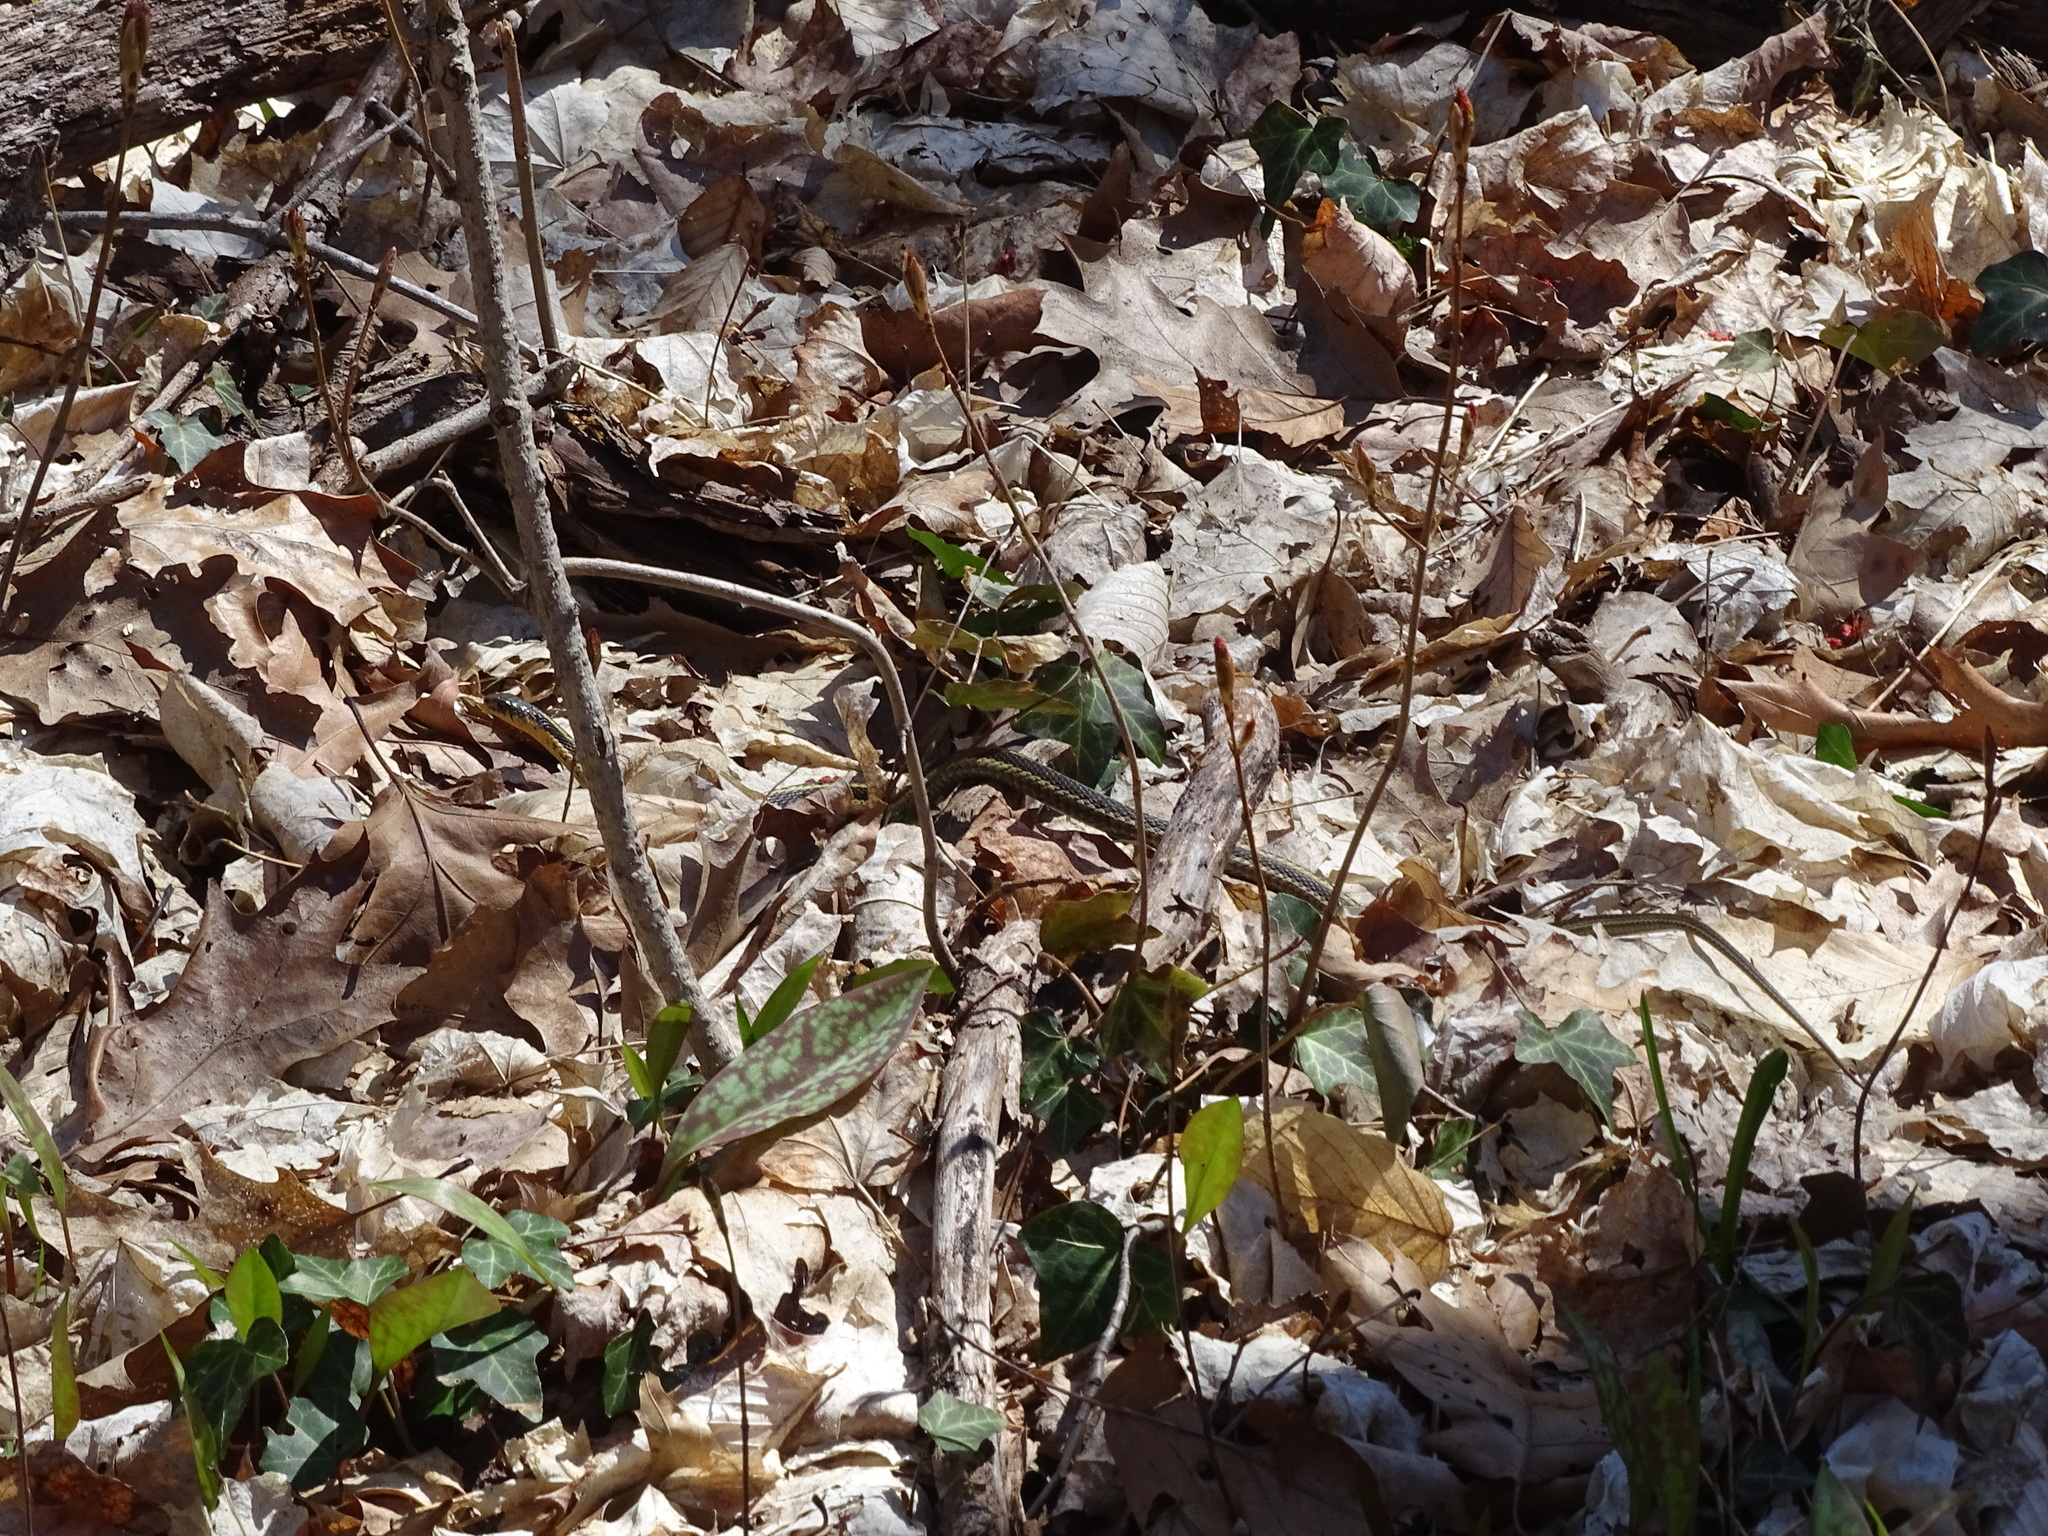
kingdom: Animalia
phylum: Chordata
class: Squamata
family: Colubridae
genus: Thamnophis
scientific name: Thamnophis sirtalis
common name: Common garter snake
